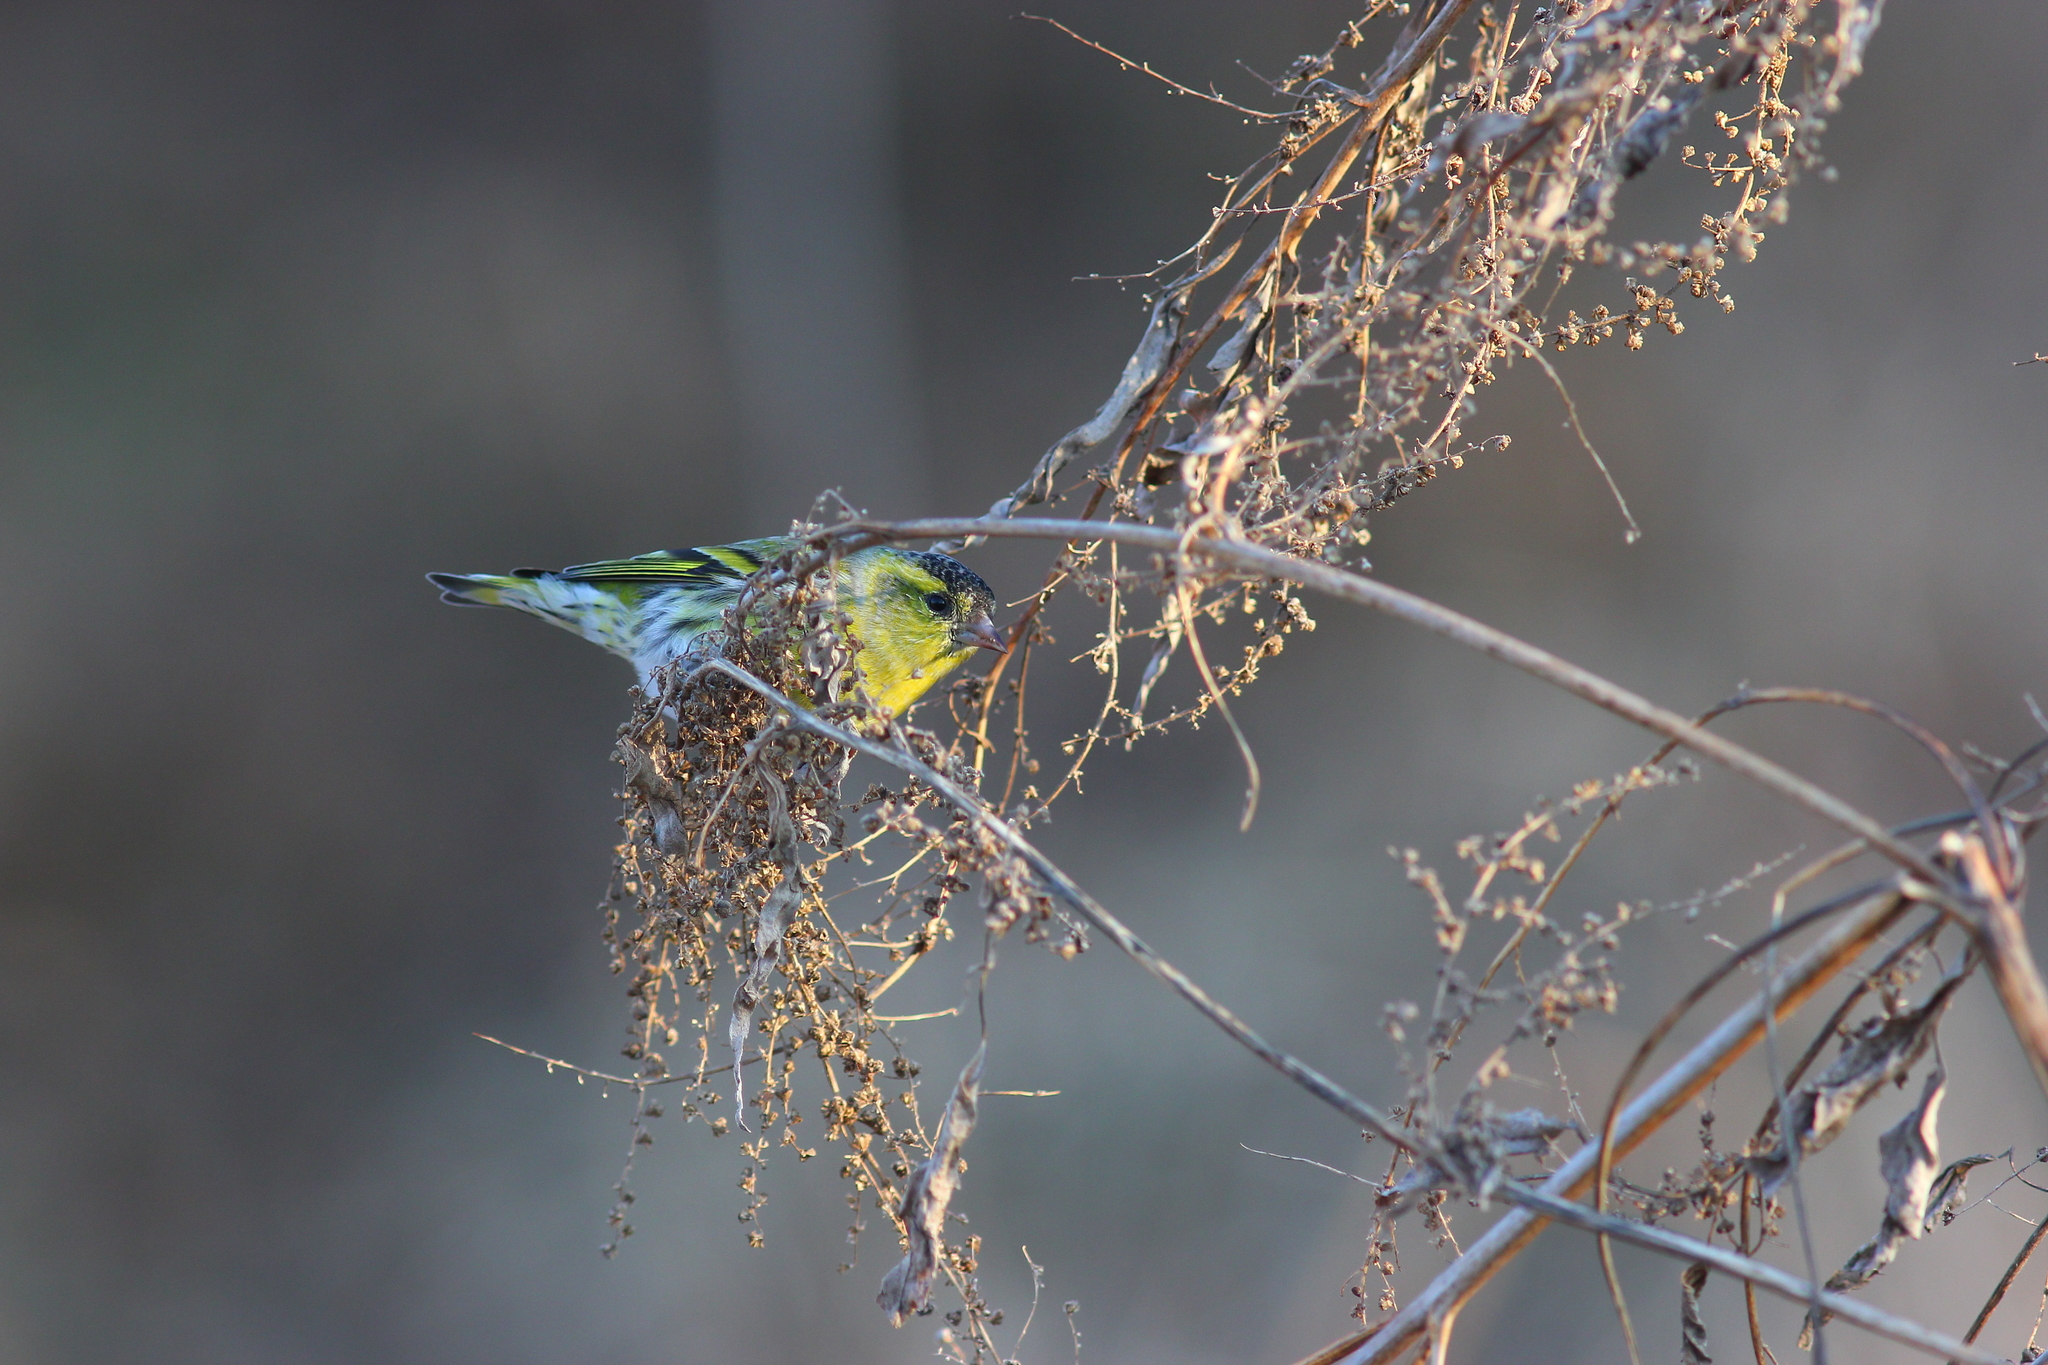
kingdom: Animalia
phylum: Chordata
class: Aves
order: Passeriformes
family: Fringillidae
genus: Spinus
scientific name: Spinus spinus
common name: Eurasian siskin
